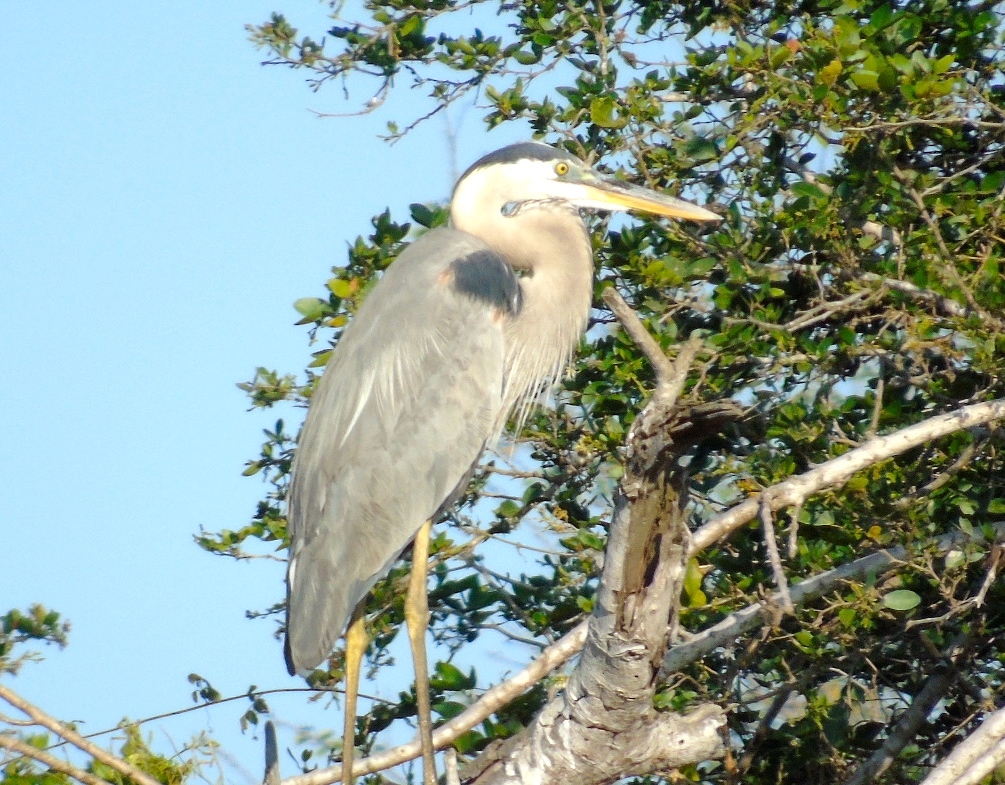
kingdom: Animalia
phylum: Chordata
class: Aves
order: Pelecaniformes
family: Ardeidae
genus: Ardea
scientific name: Ardea herodias
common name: Great blue heron
